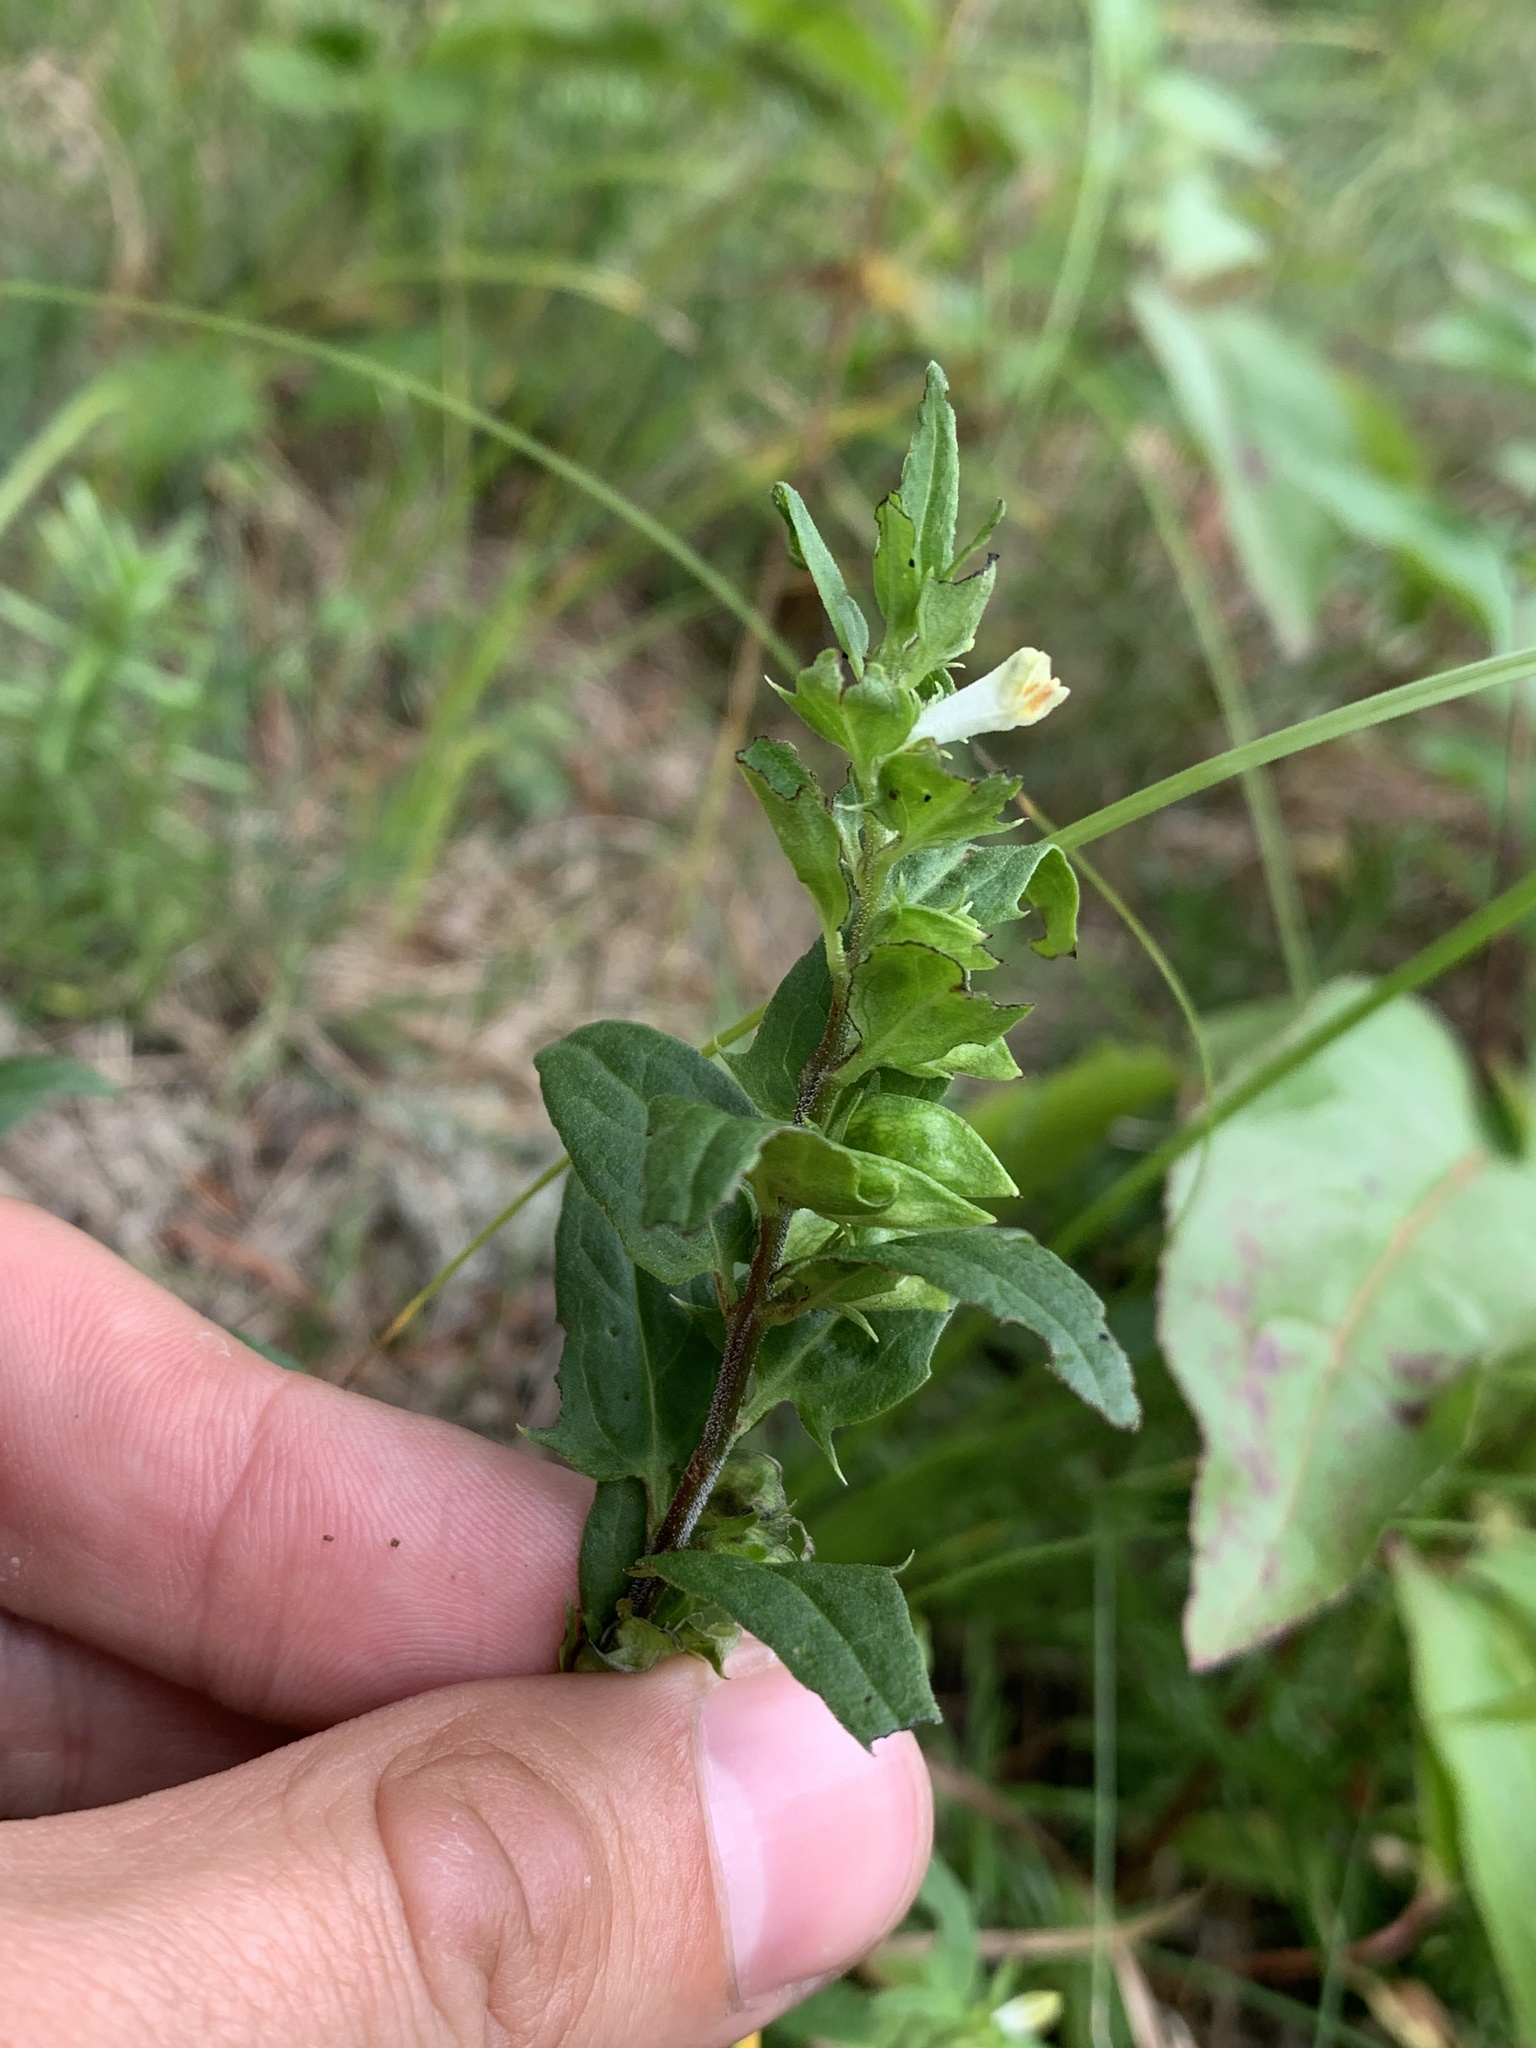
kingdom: Plantae
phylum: Tracheophyta
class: Magnoliopsida
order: Lamiales
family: Orobanchaceae
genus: Melampyrum
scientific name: Melampyrum lineare
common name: American cow-wheat
